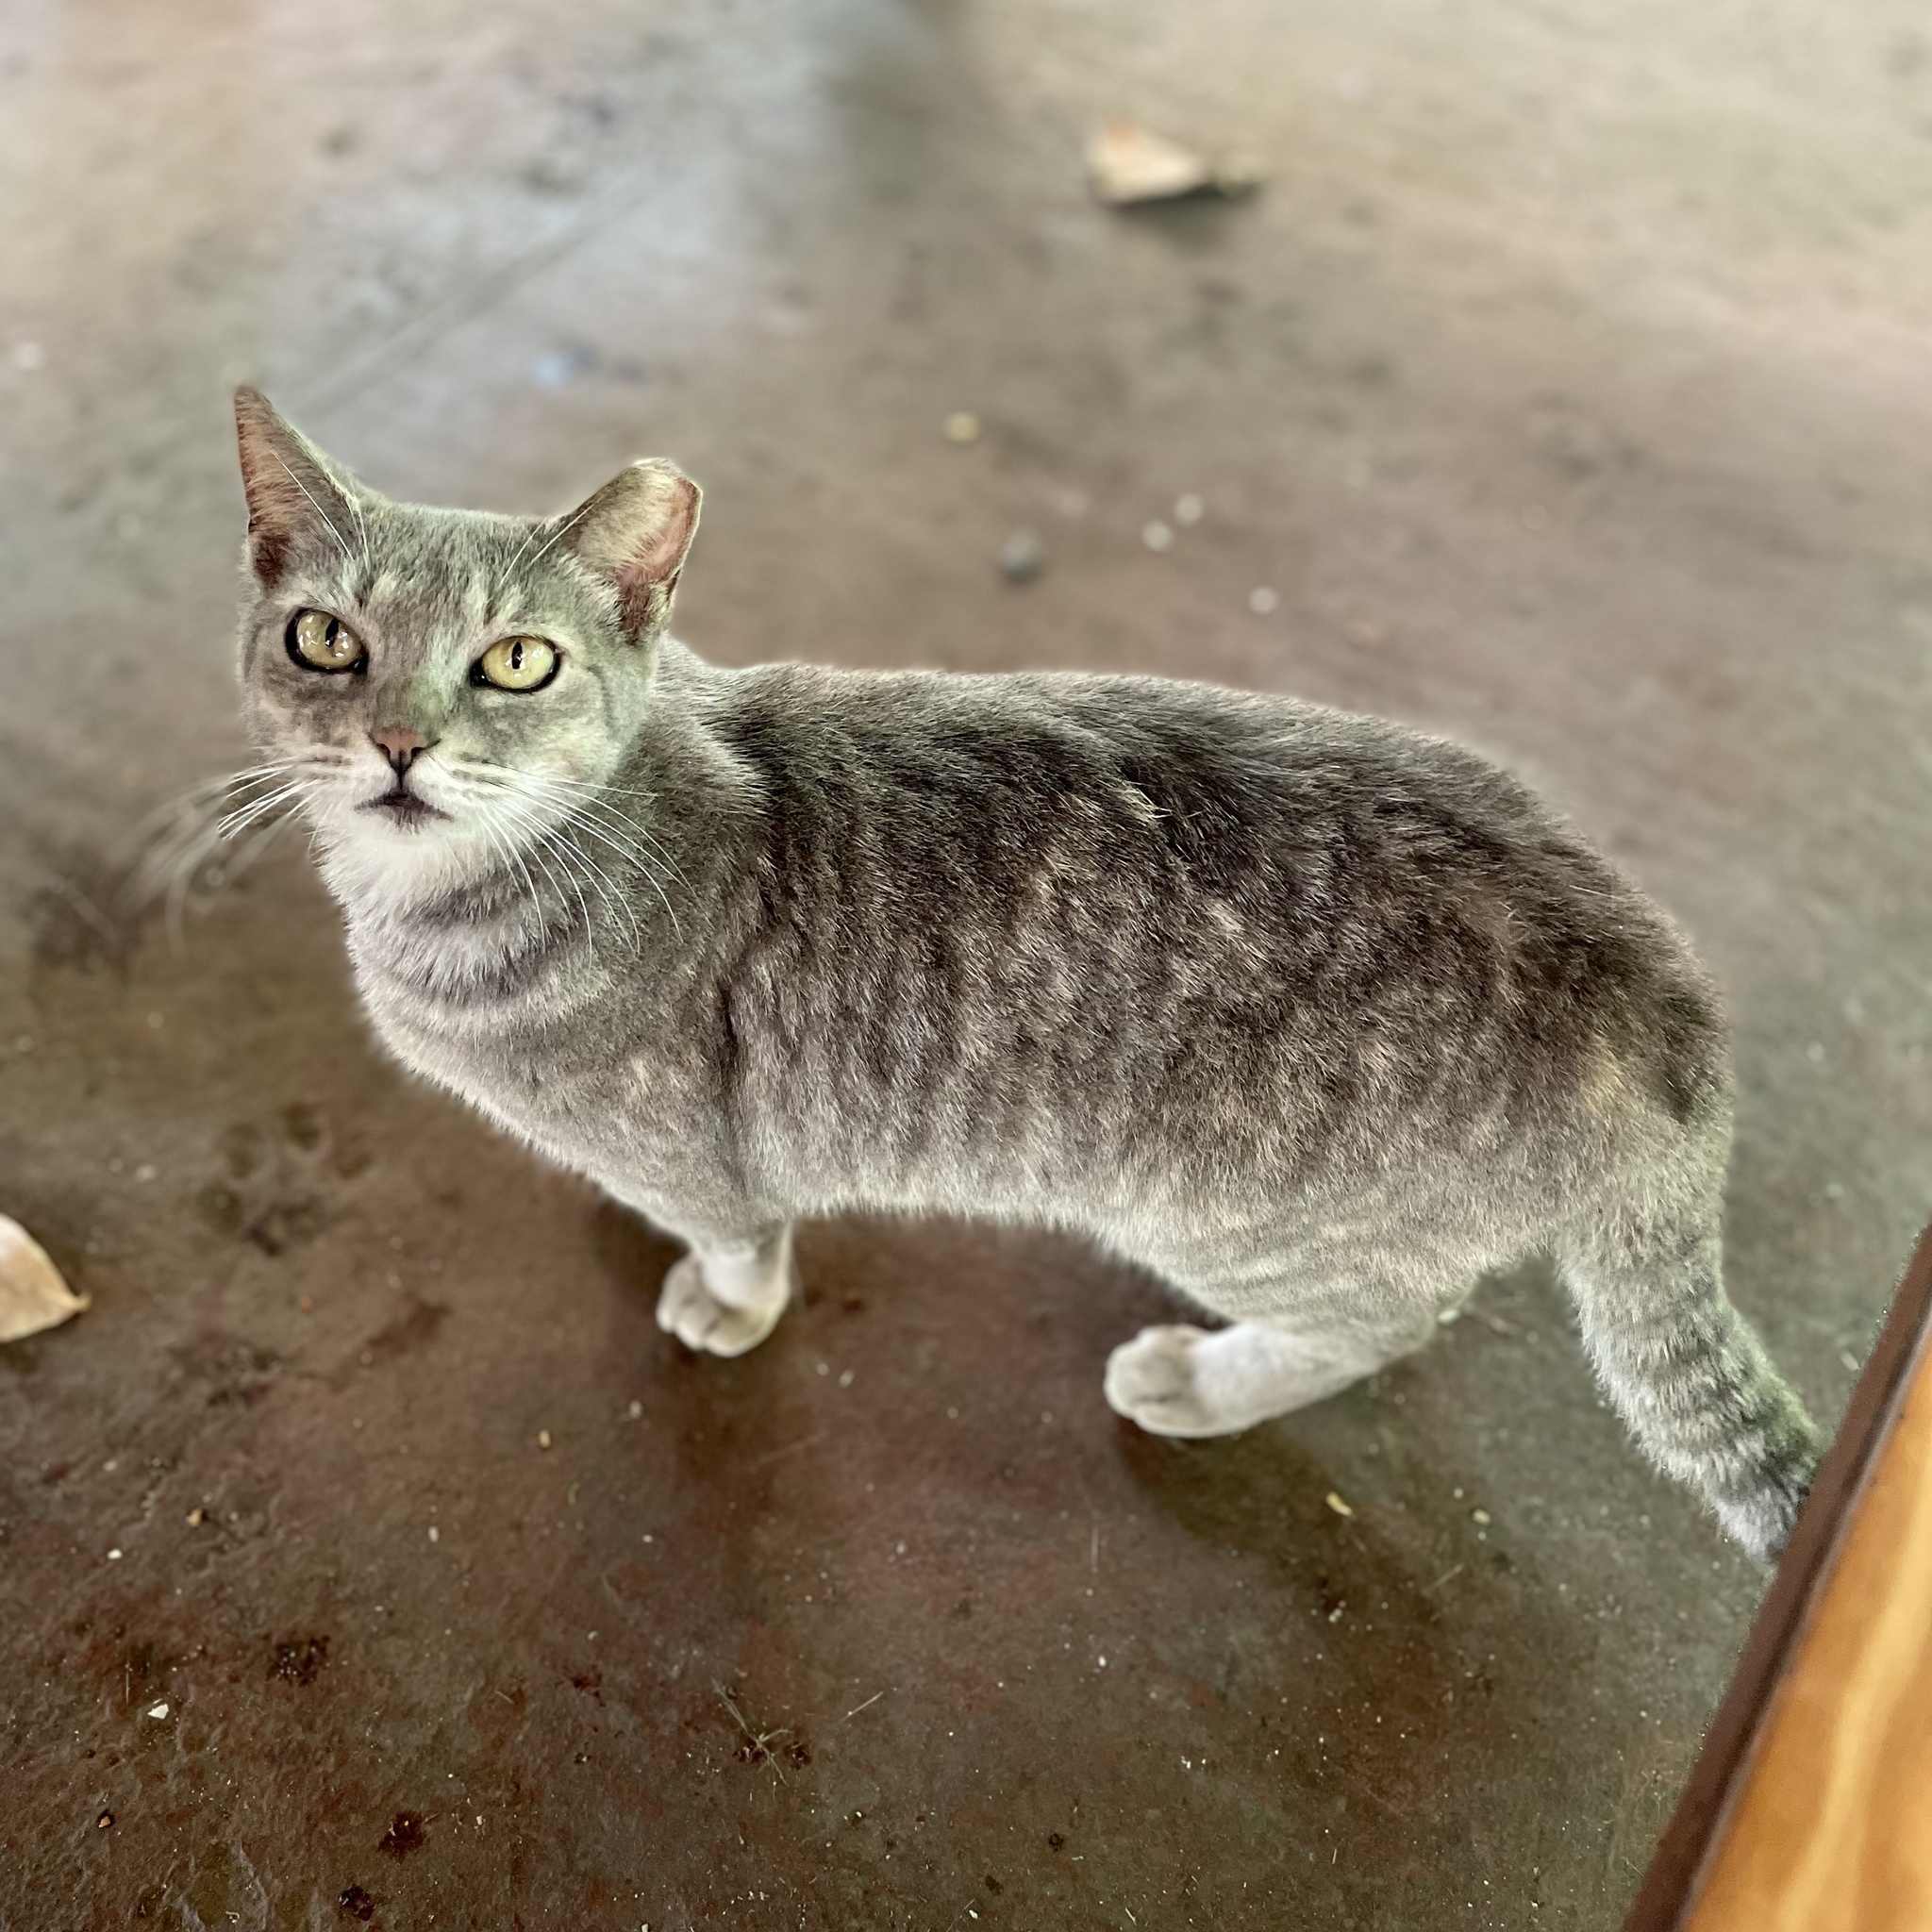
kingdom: Animalia
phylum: Chordata
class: Mammalia
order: Carnivora
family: Felidae
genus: Felis
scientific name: Felis catus
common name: Domestic cat
